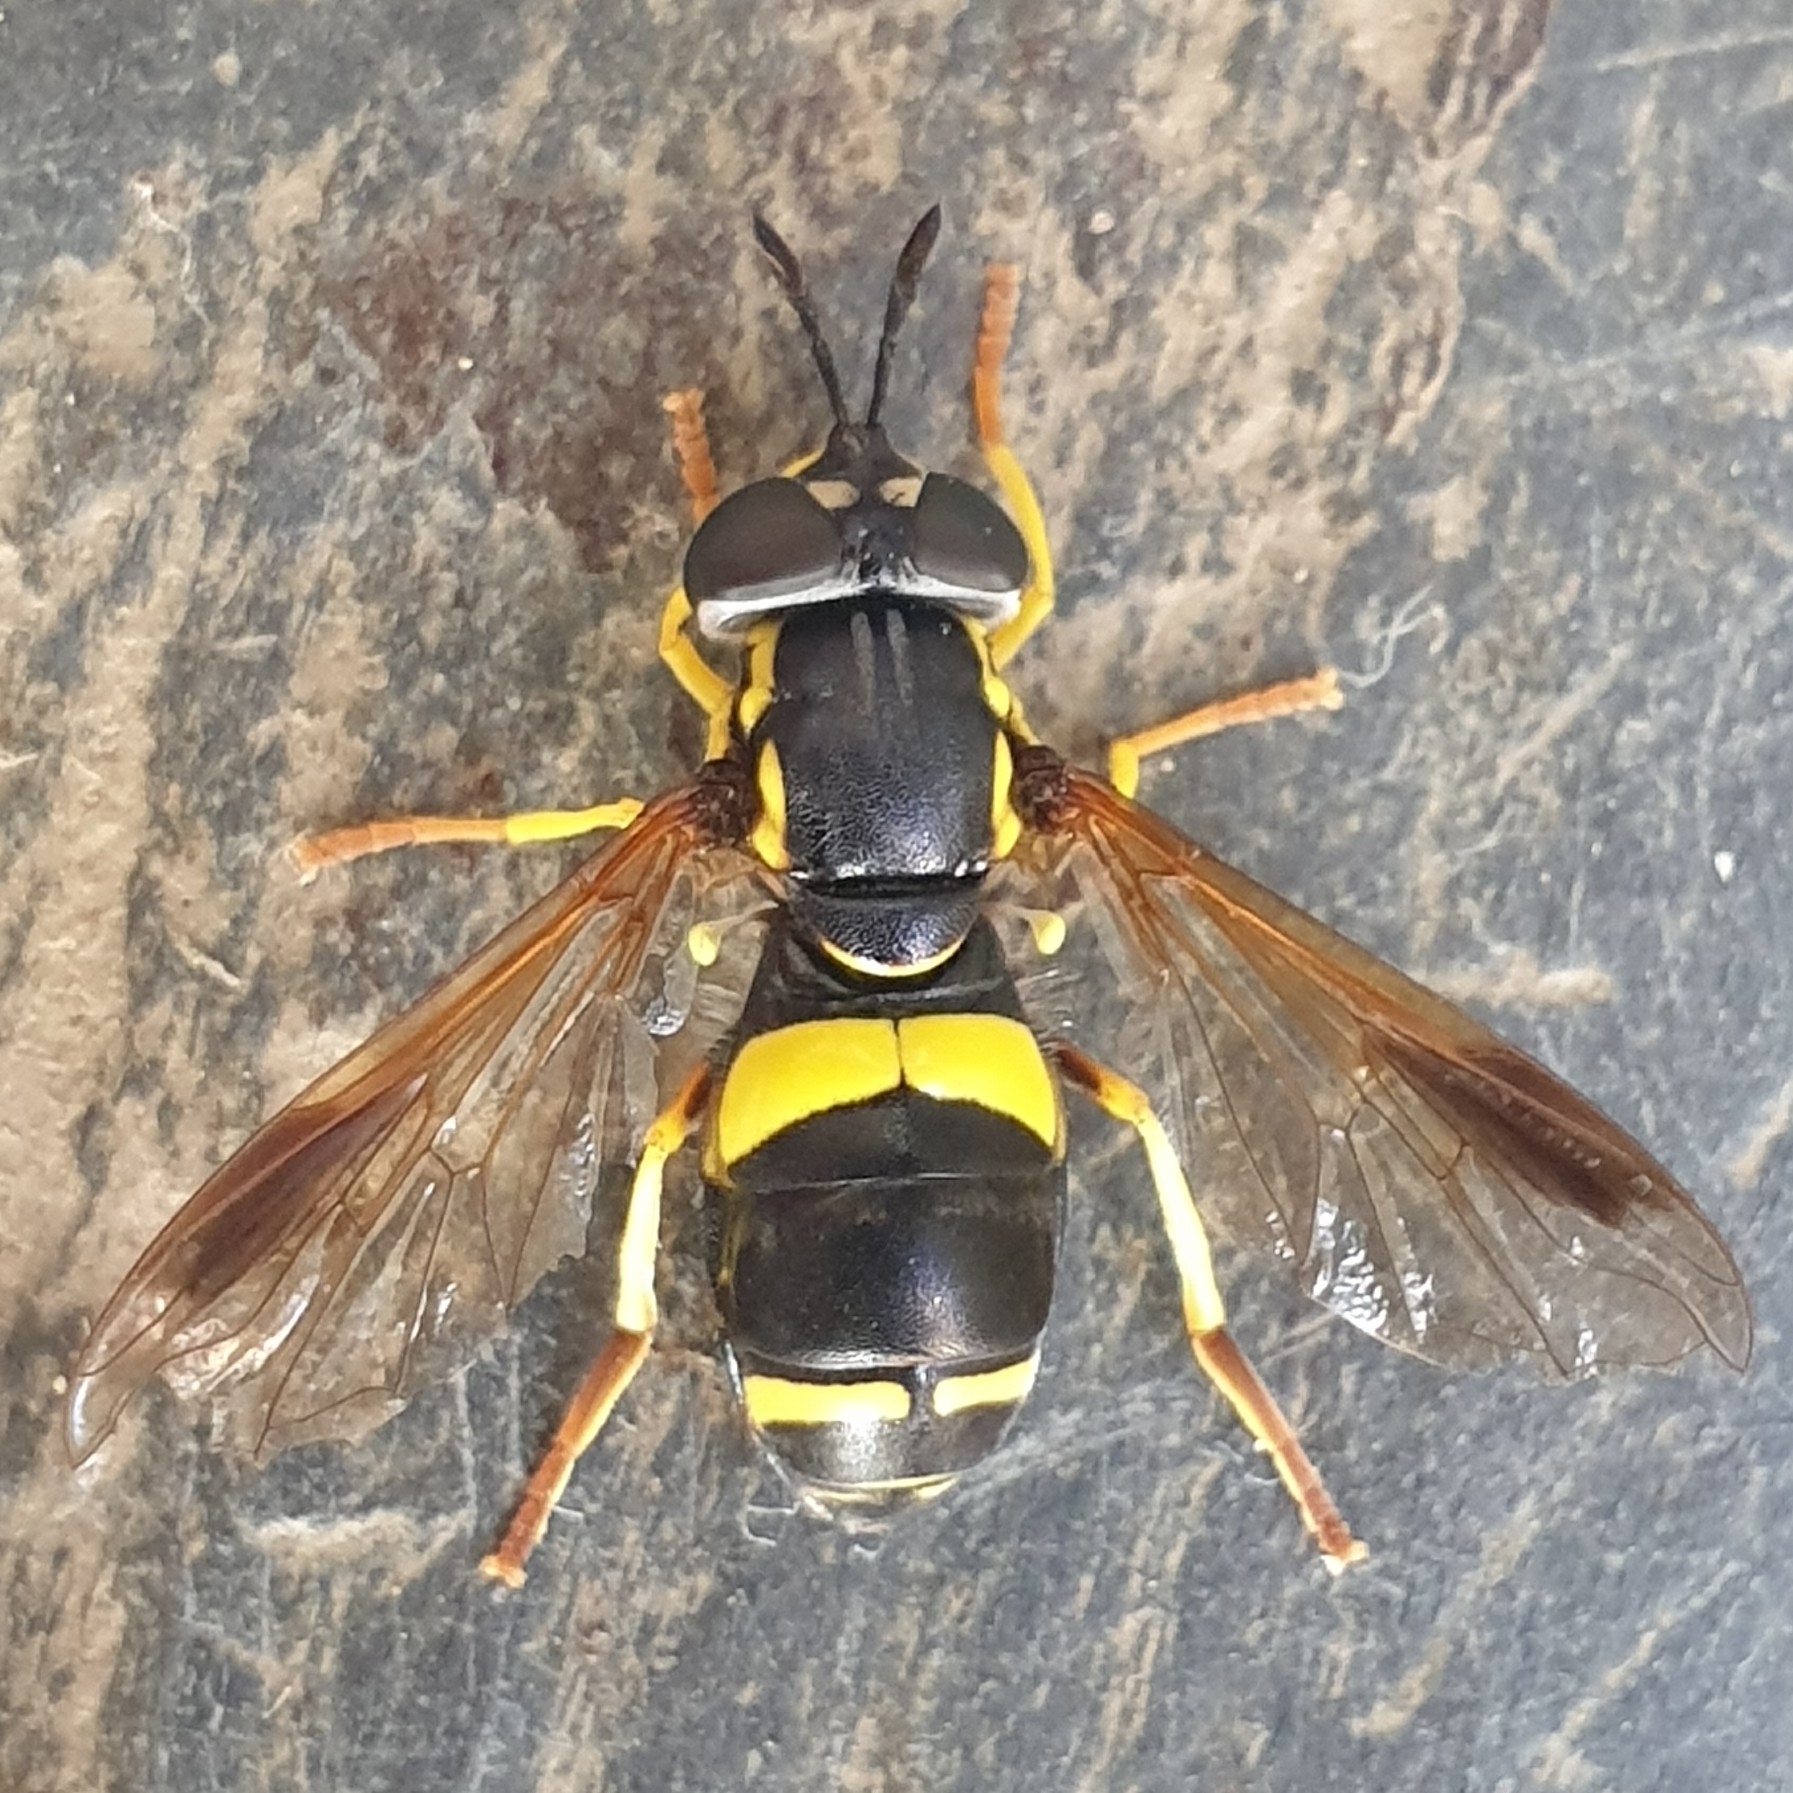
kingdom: Animalia
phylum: Arthropoda
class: Insecta
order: Diptera
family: Syrphidae
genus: Chrysotoxum
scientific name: Chrysotoxum bicincta
